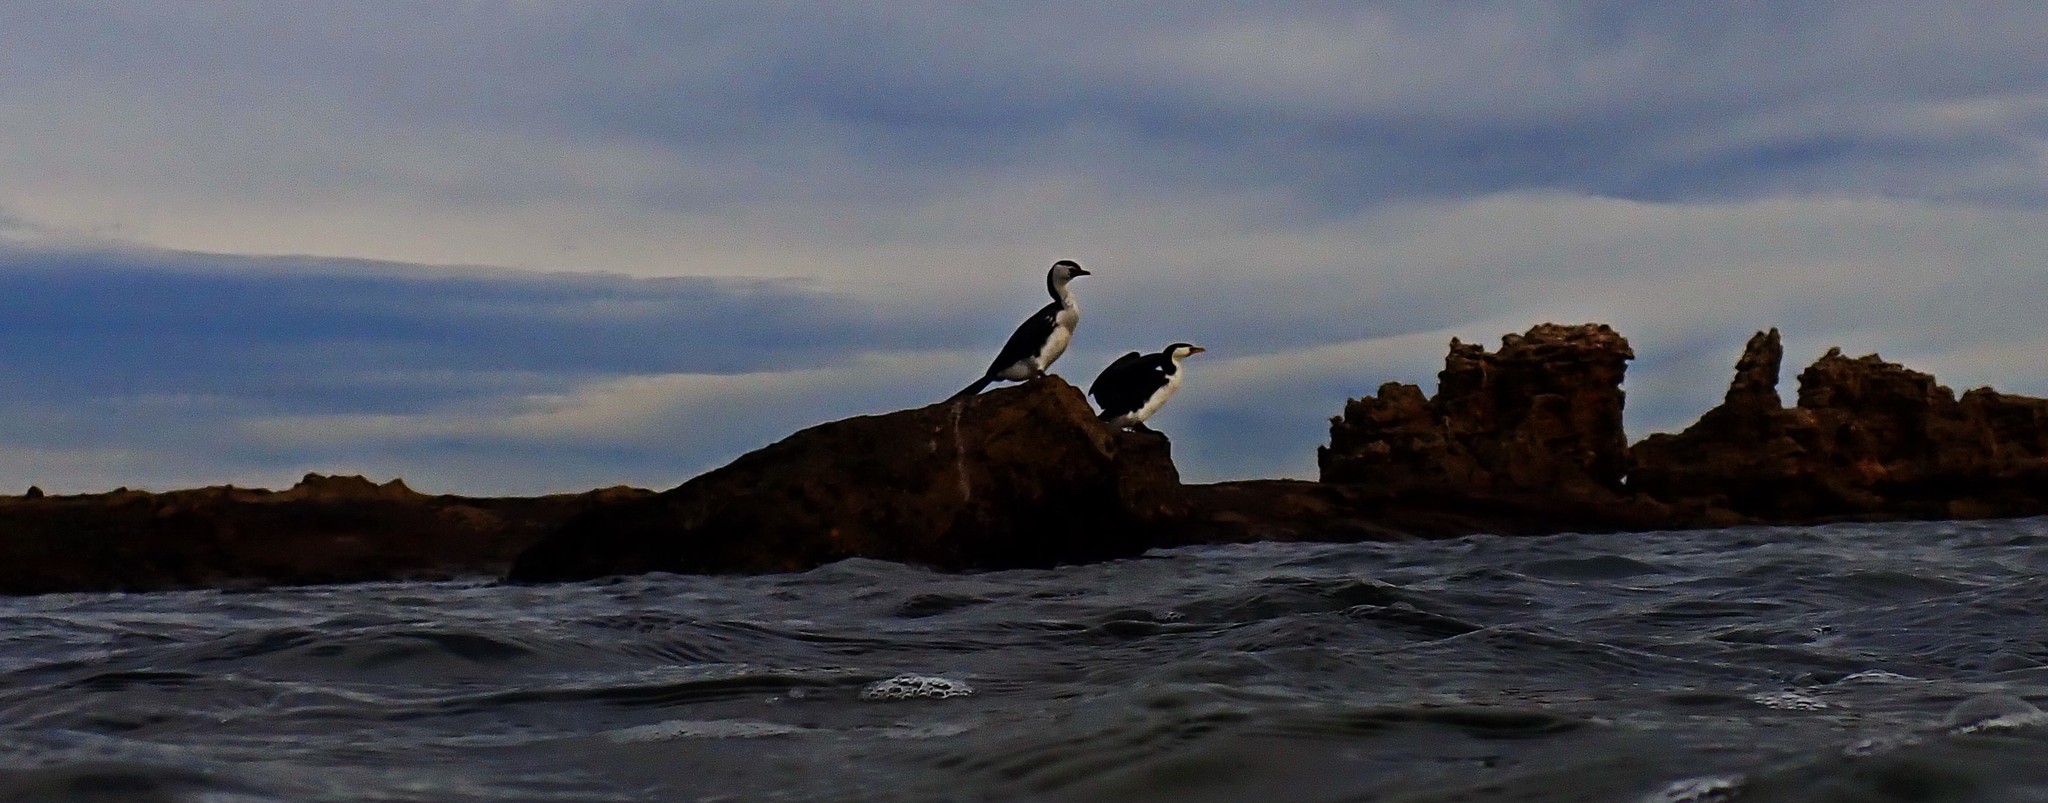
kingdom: Animalia
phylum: Chordata
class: Aves
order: Suliformes
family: Phalacrocoracidae
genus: Microcarbo
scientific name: Microcarbo melanoleucos
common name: Little pied cormorant
